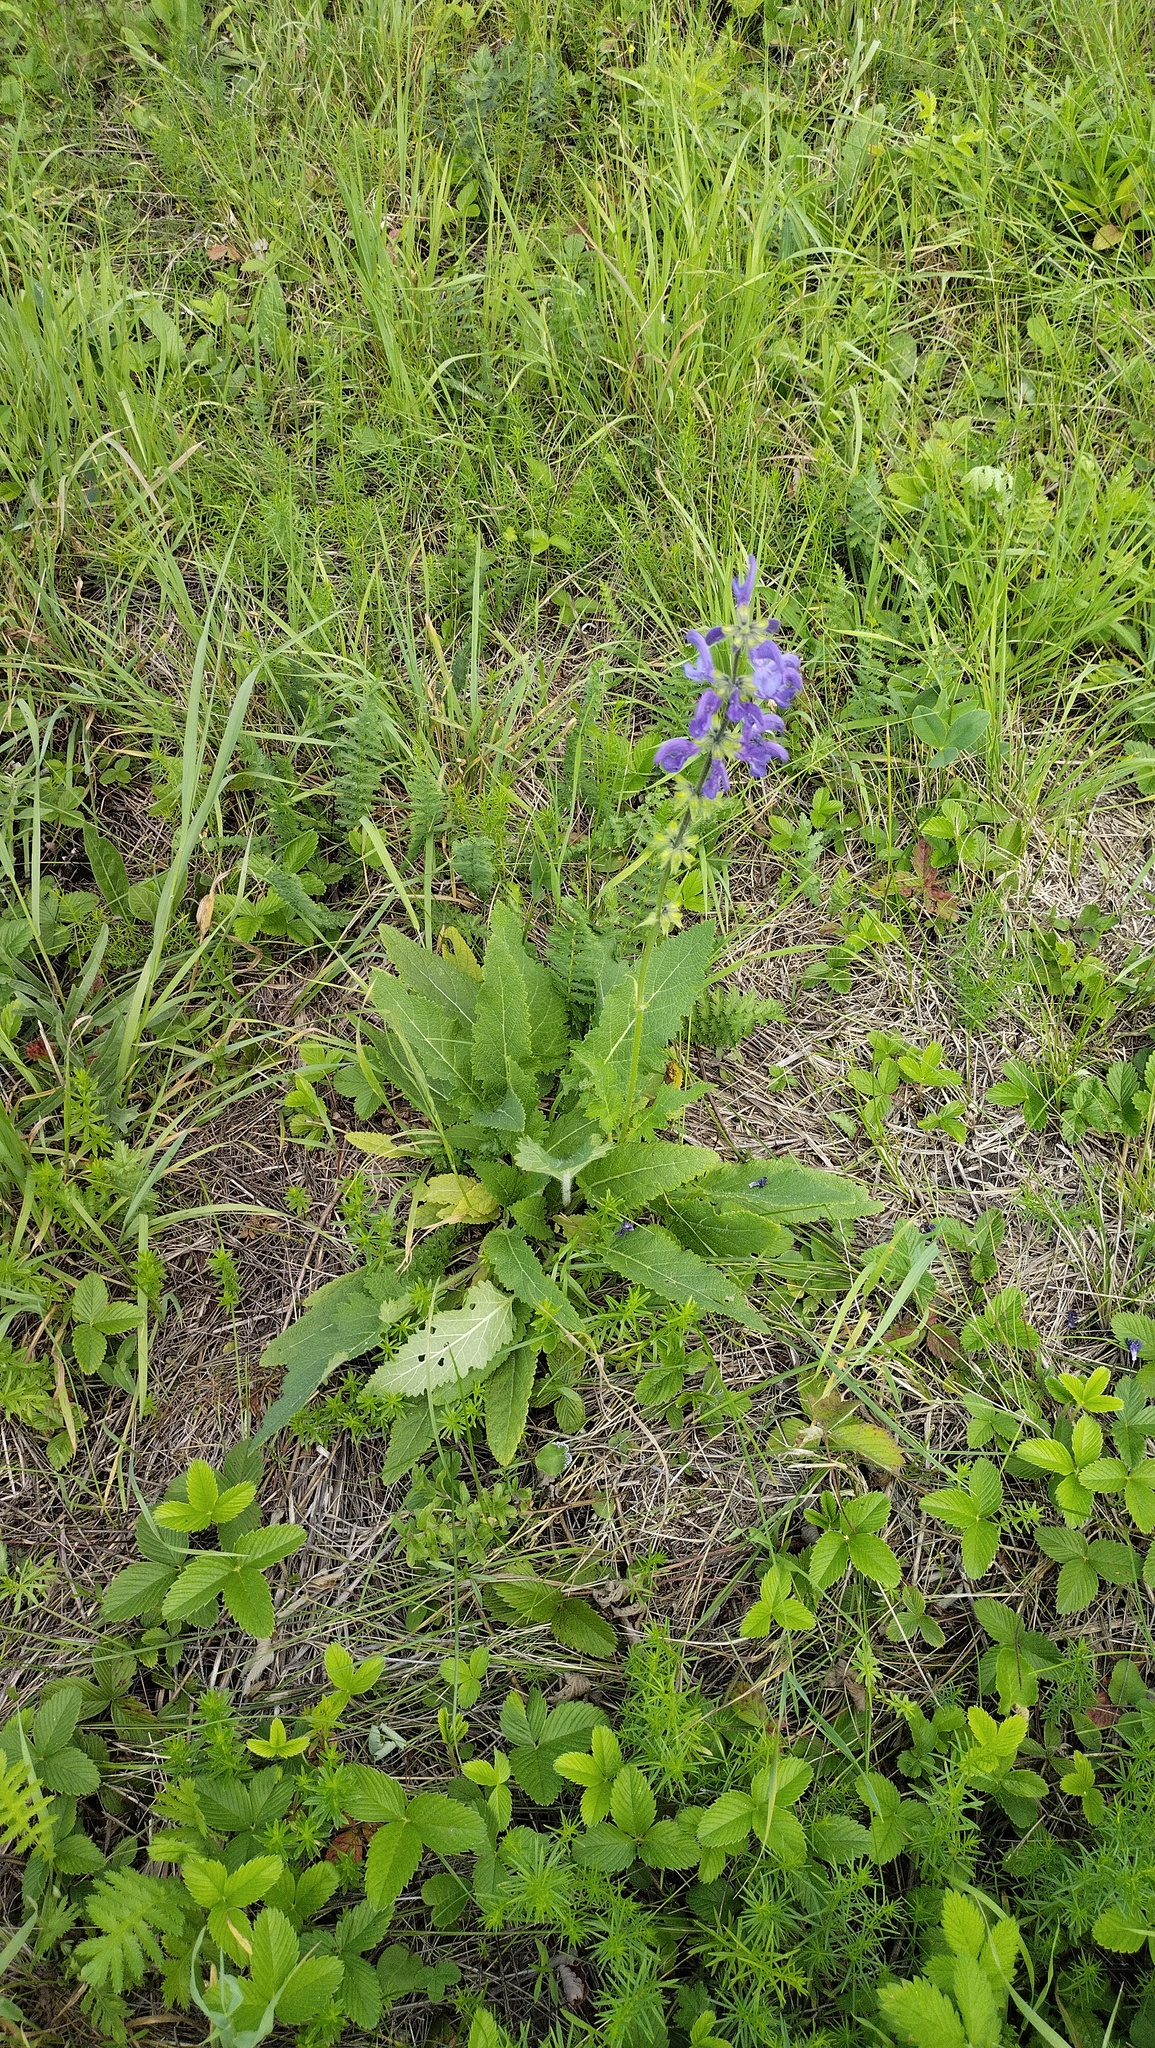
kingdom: Plantae
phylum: Tracheophyta
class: Magnoliopsida
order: Lamiales
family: Lamiaceae
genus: Salvia
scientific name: Salvia pratensis
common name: Meadow sage
